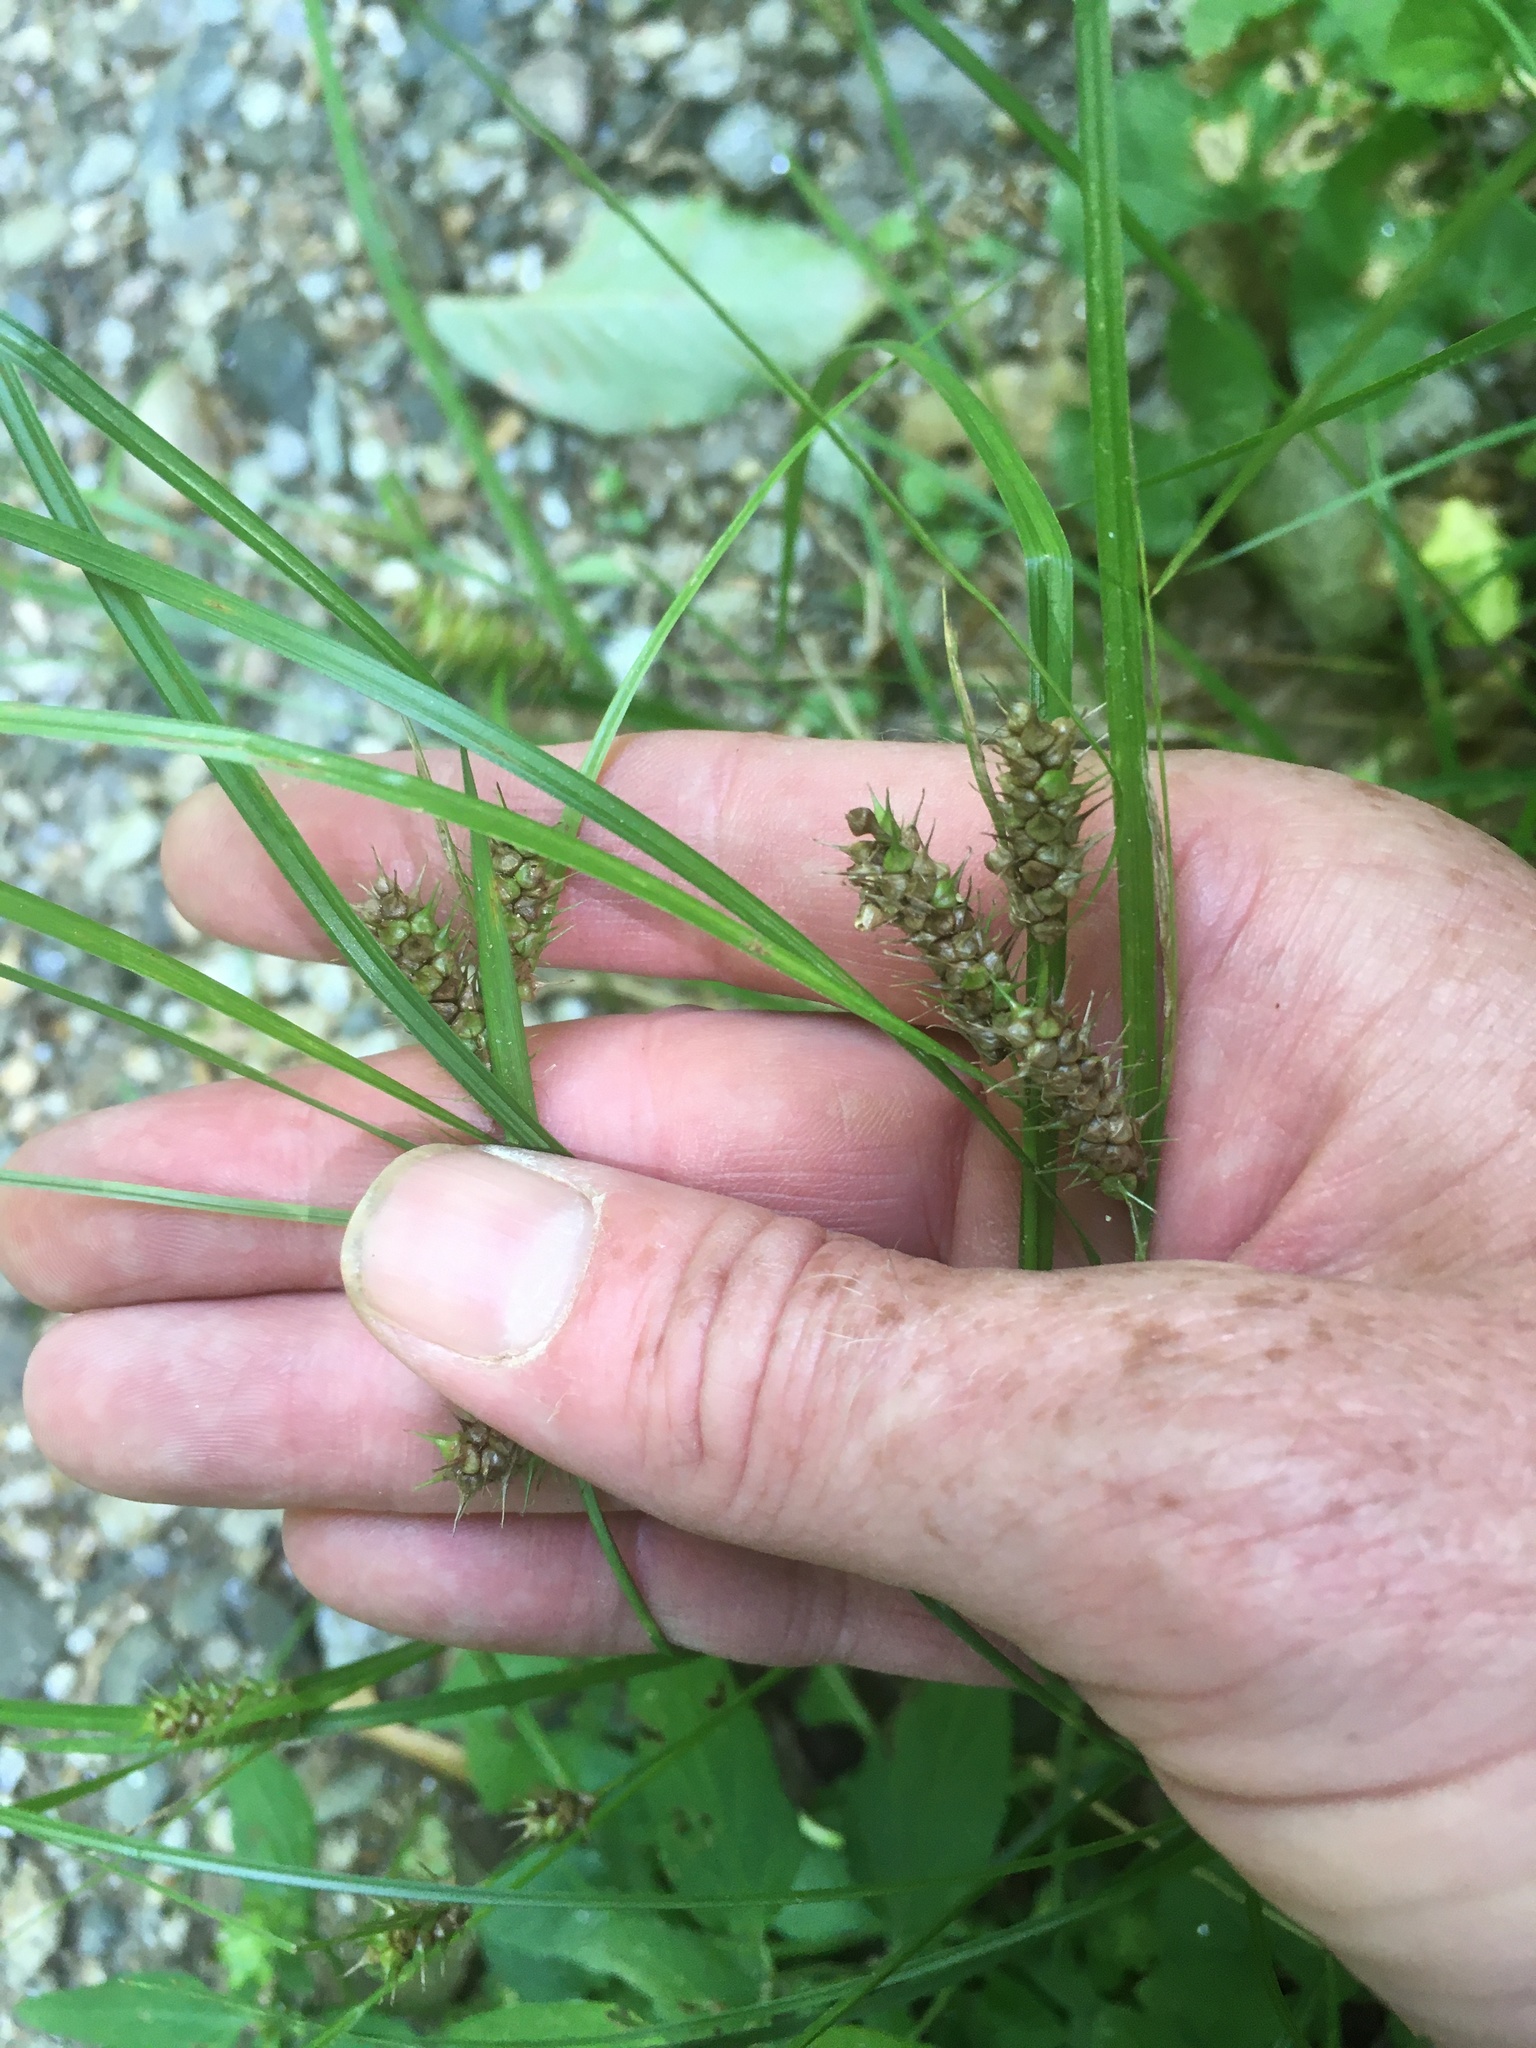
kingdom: Plantae
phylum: Tracheophyta
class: Liliopsida
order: Poales
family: Cyperaceae
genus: Carex
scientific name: Carex baileyi
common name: Bailey's sedge
